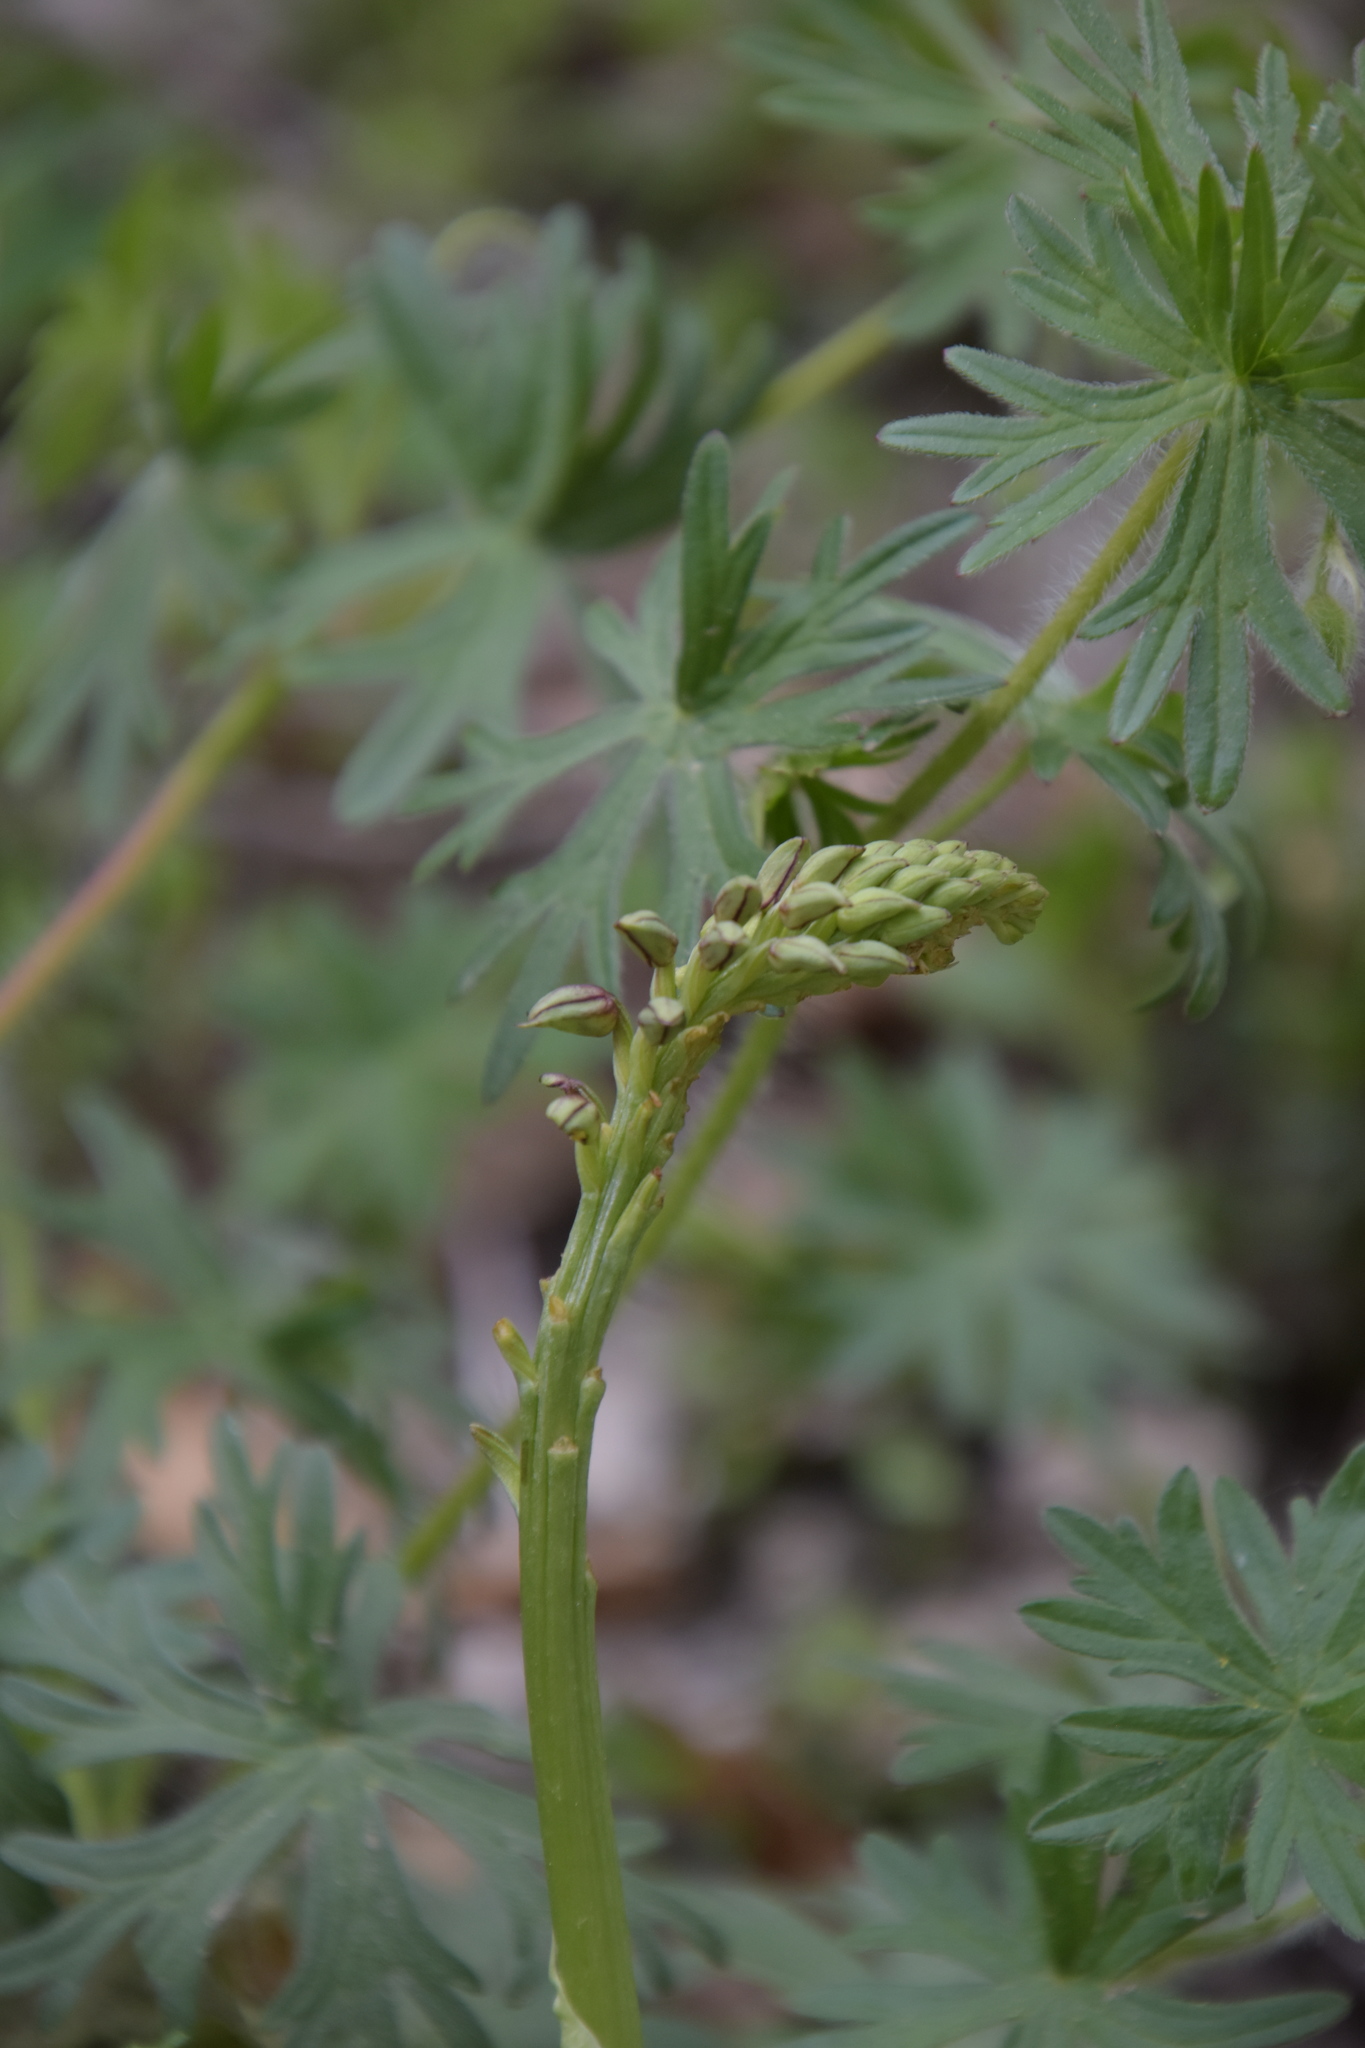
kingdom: Plantae
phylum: Tracheophyta
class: Liliopsida
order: Asparagales
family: Orchidaceae
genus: Orchis
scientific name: Orchis anthropophora
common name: Man orchid
